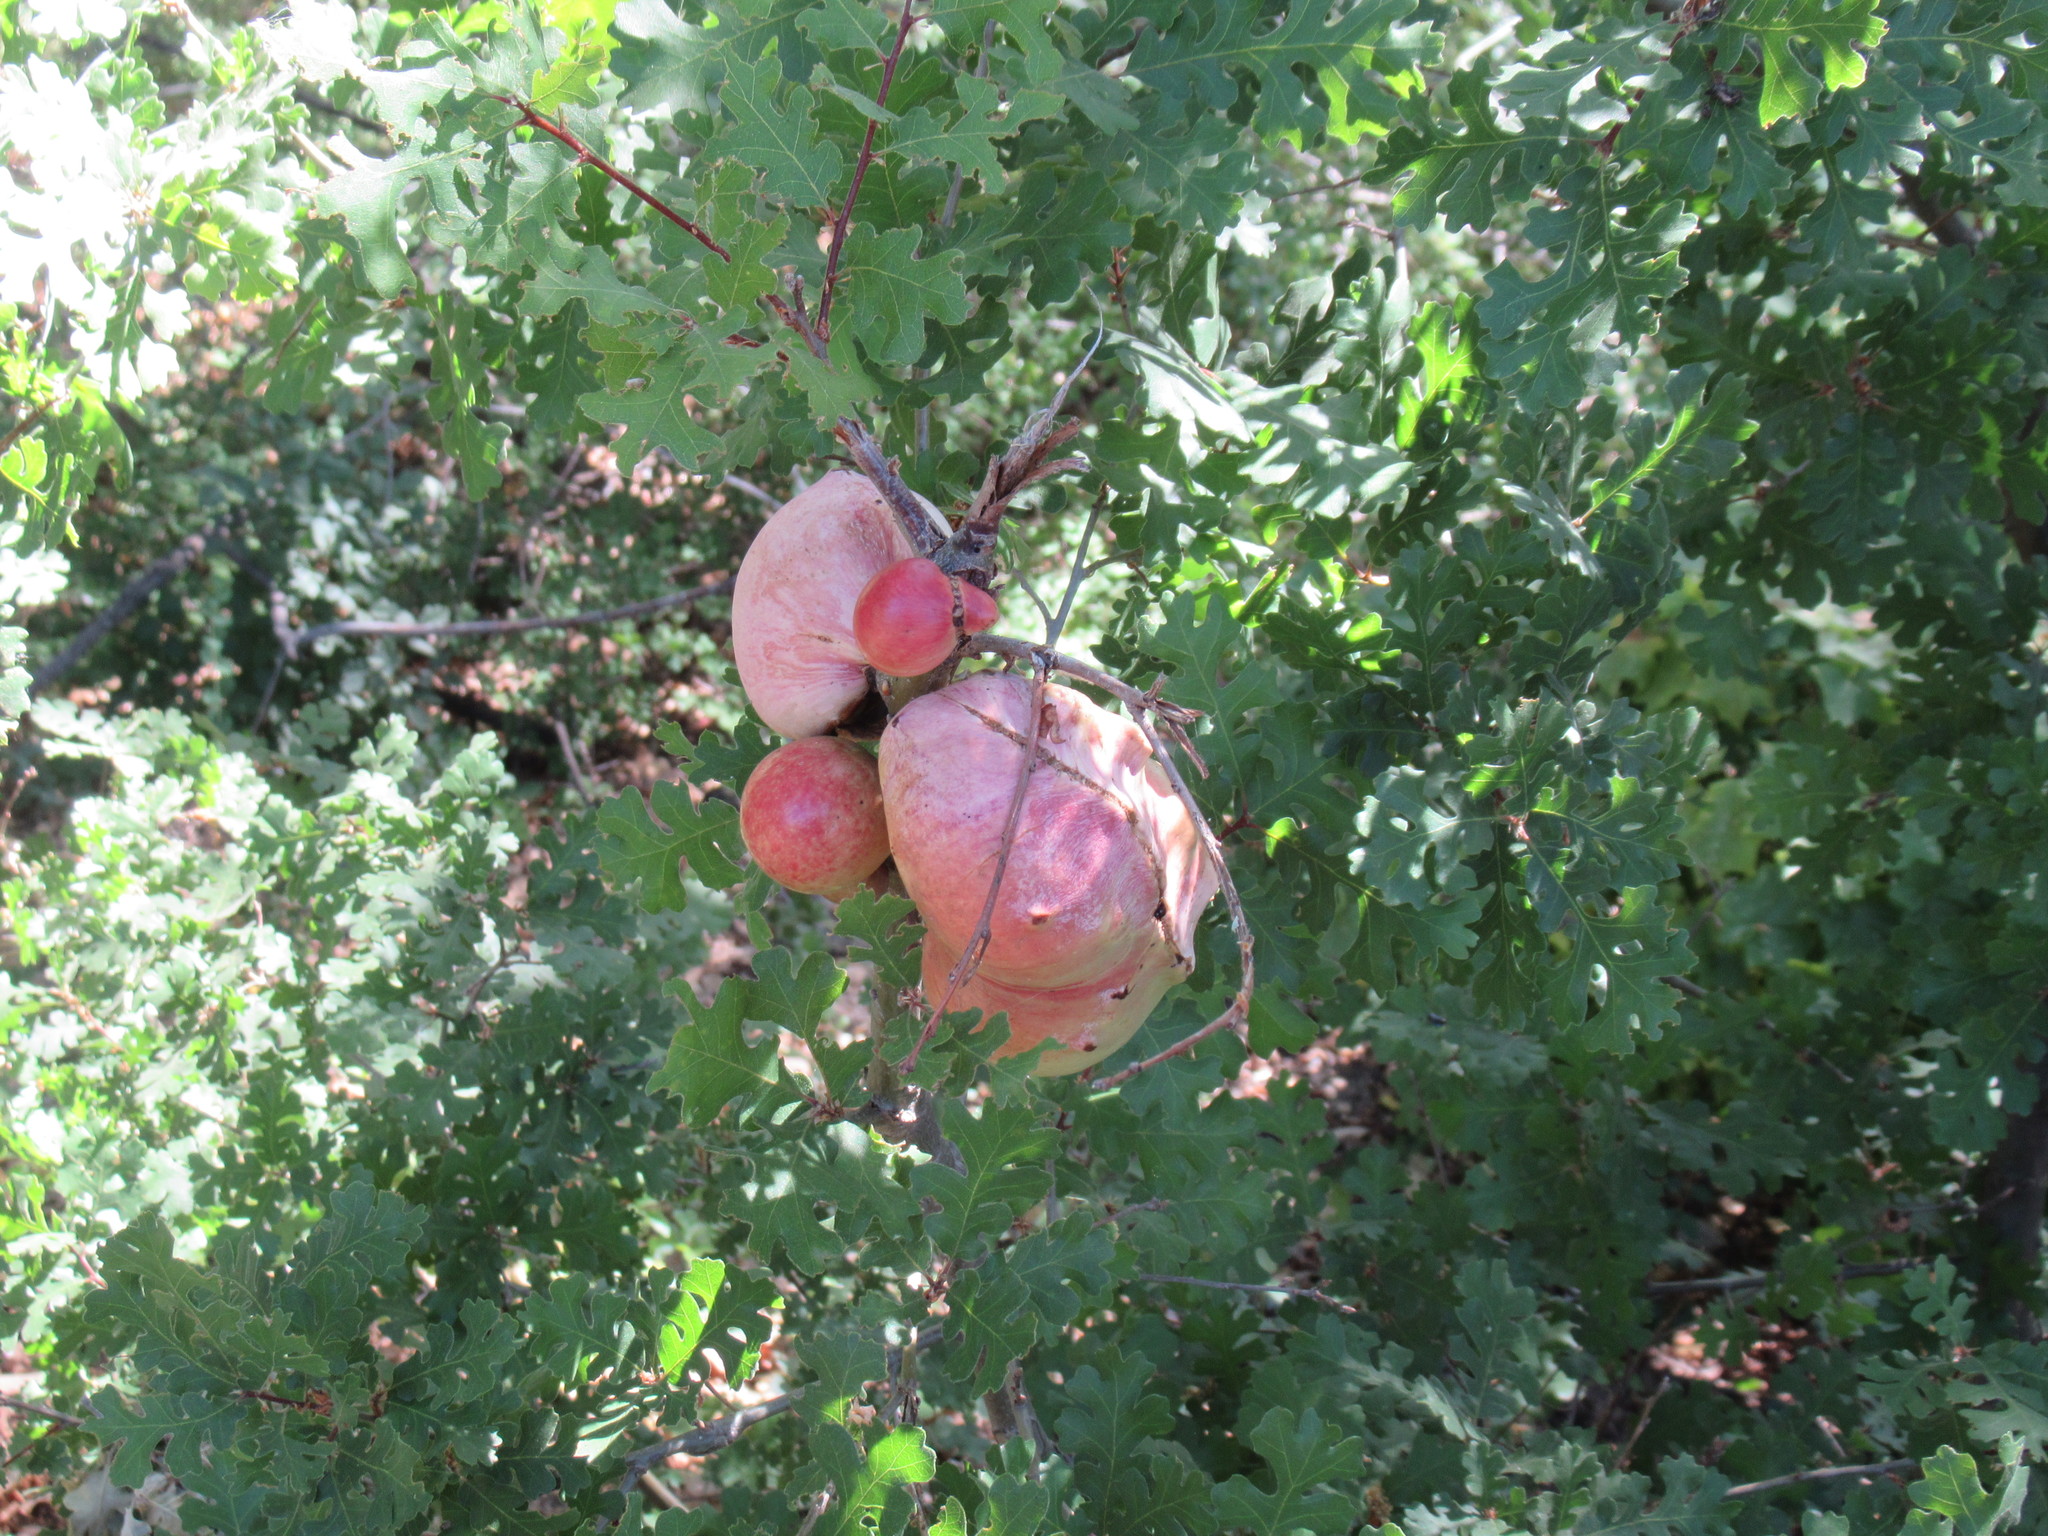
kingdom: Animalia
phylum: Arthropoda
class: Insecta
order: Hymenoptera
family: Cynipidae
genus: Andricus
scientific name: Andricus quercuscalifornicus
